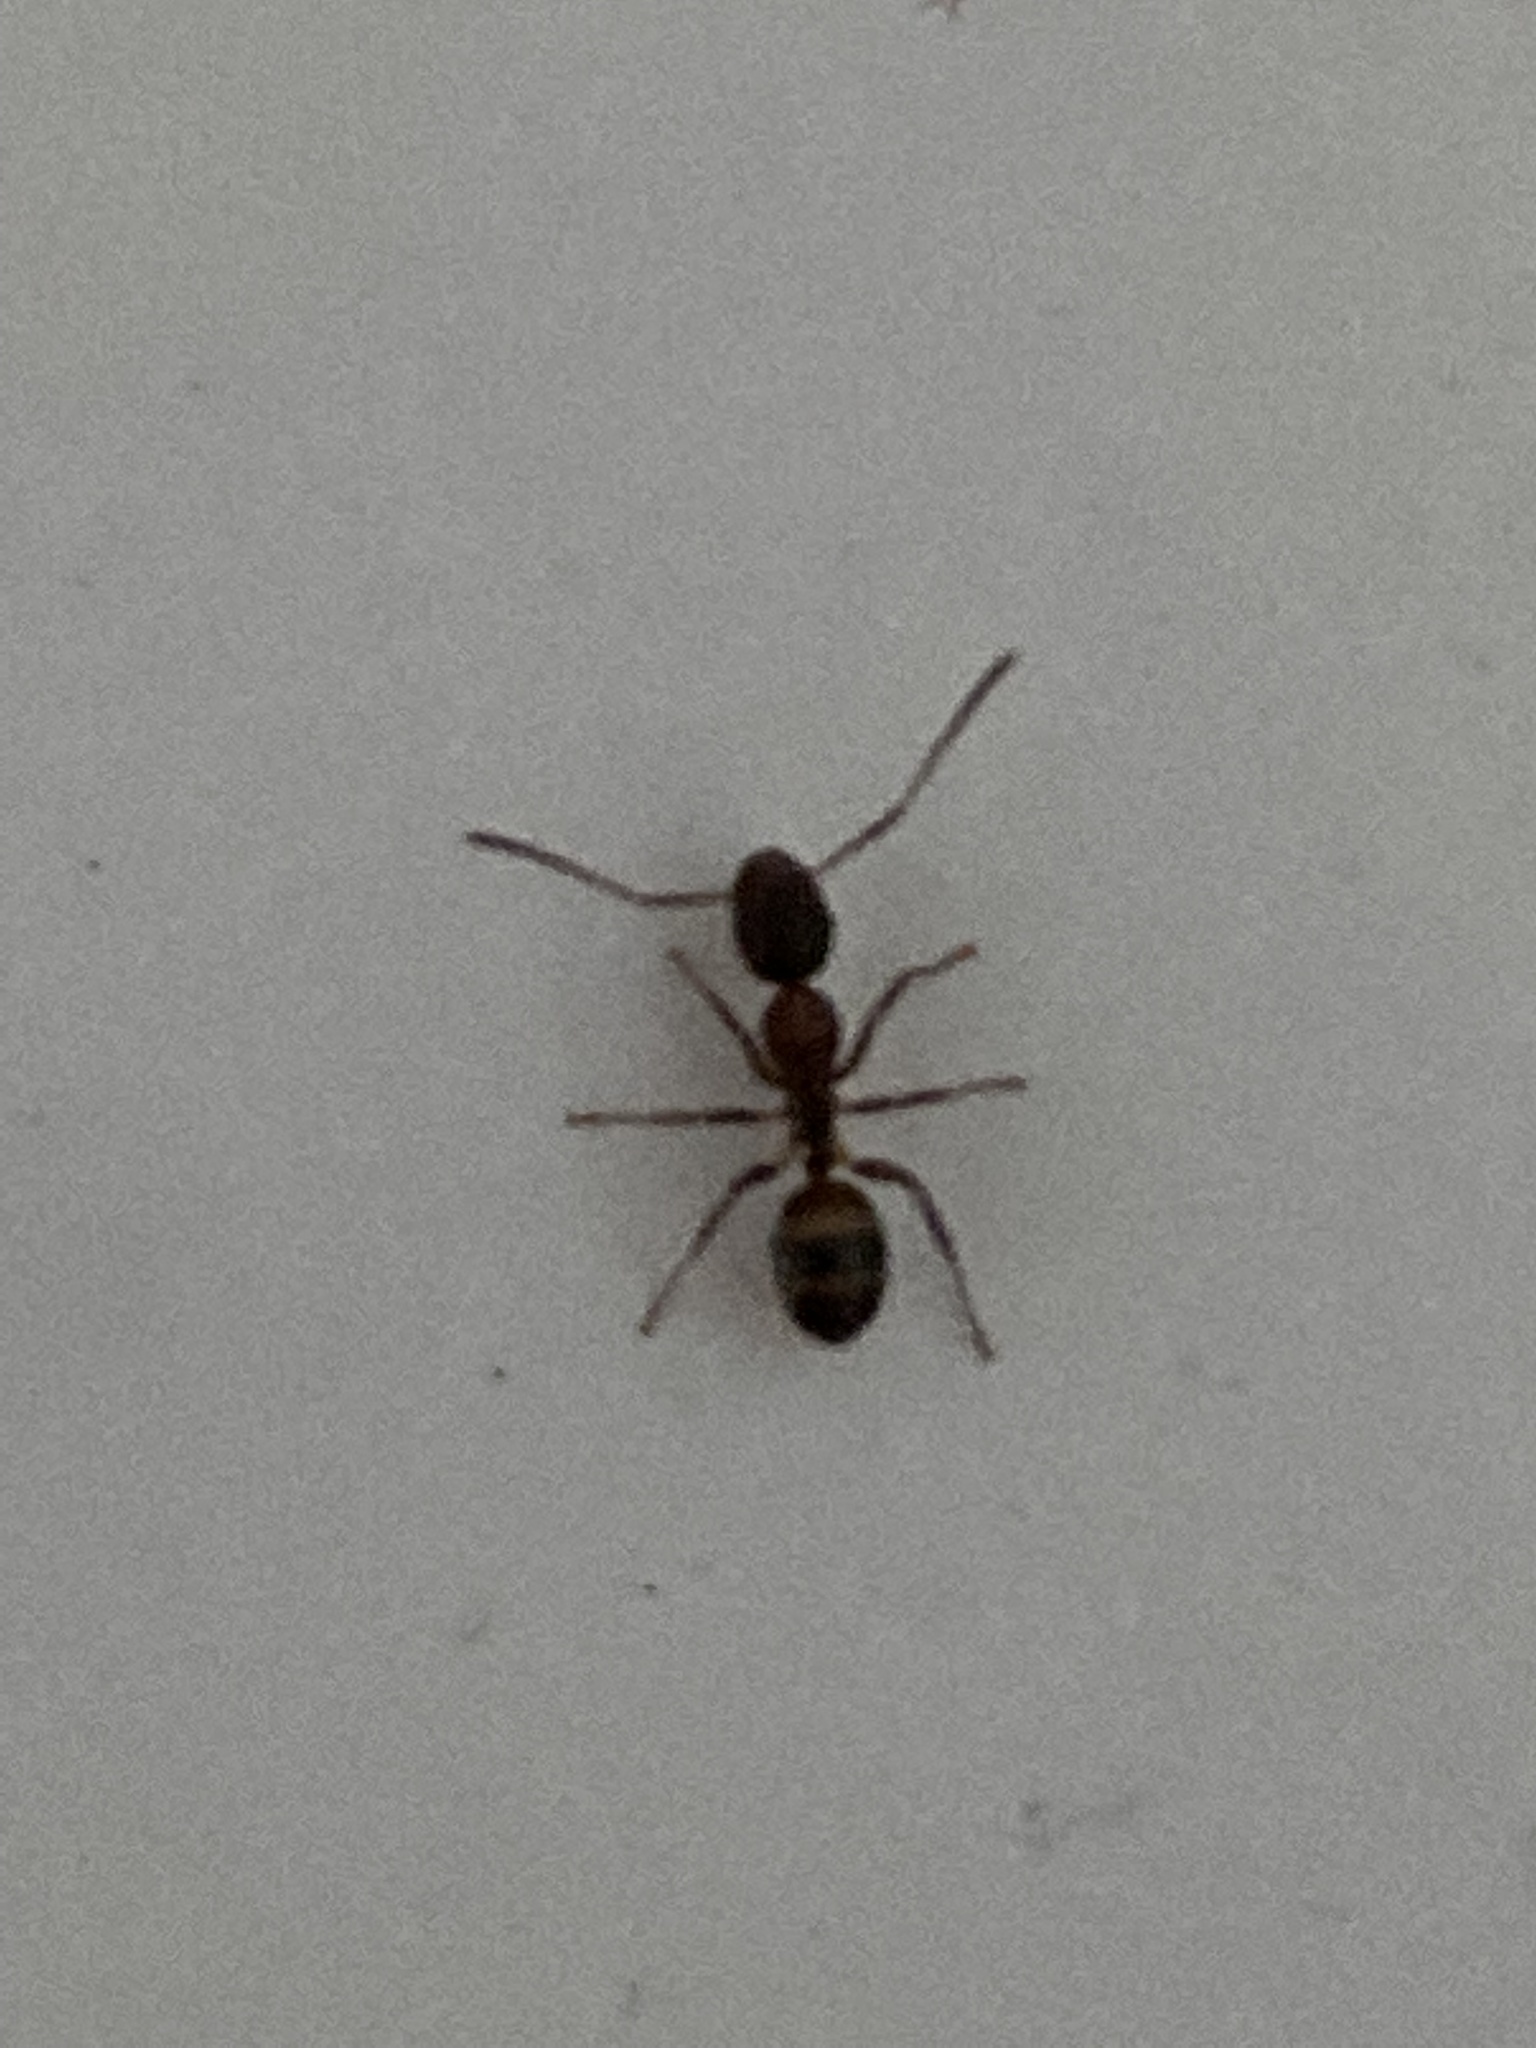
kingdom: Animalia
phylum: Arthropoda
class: Insecta
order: Hymenoptera
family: Formicidae
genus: Camponotus
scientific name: Camponotus subbarbatus
